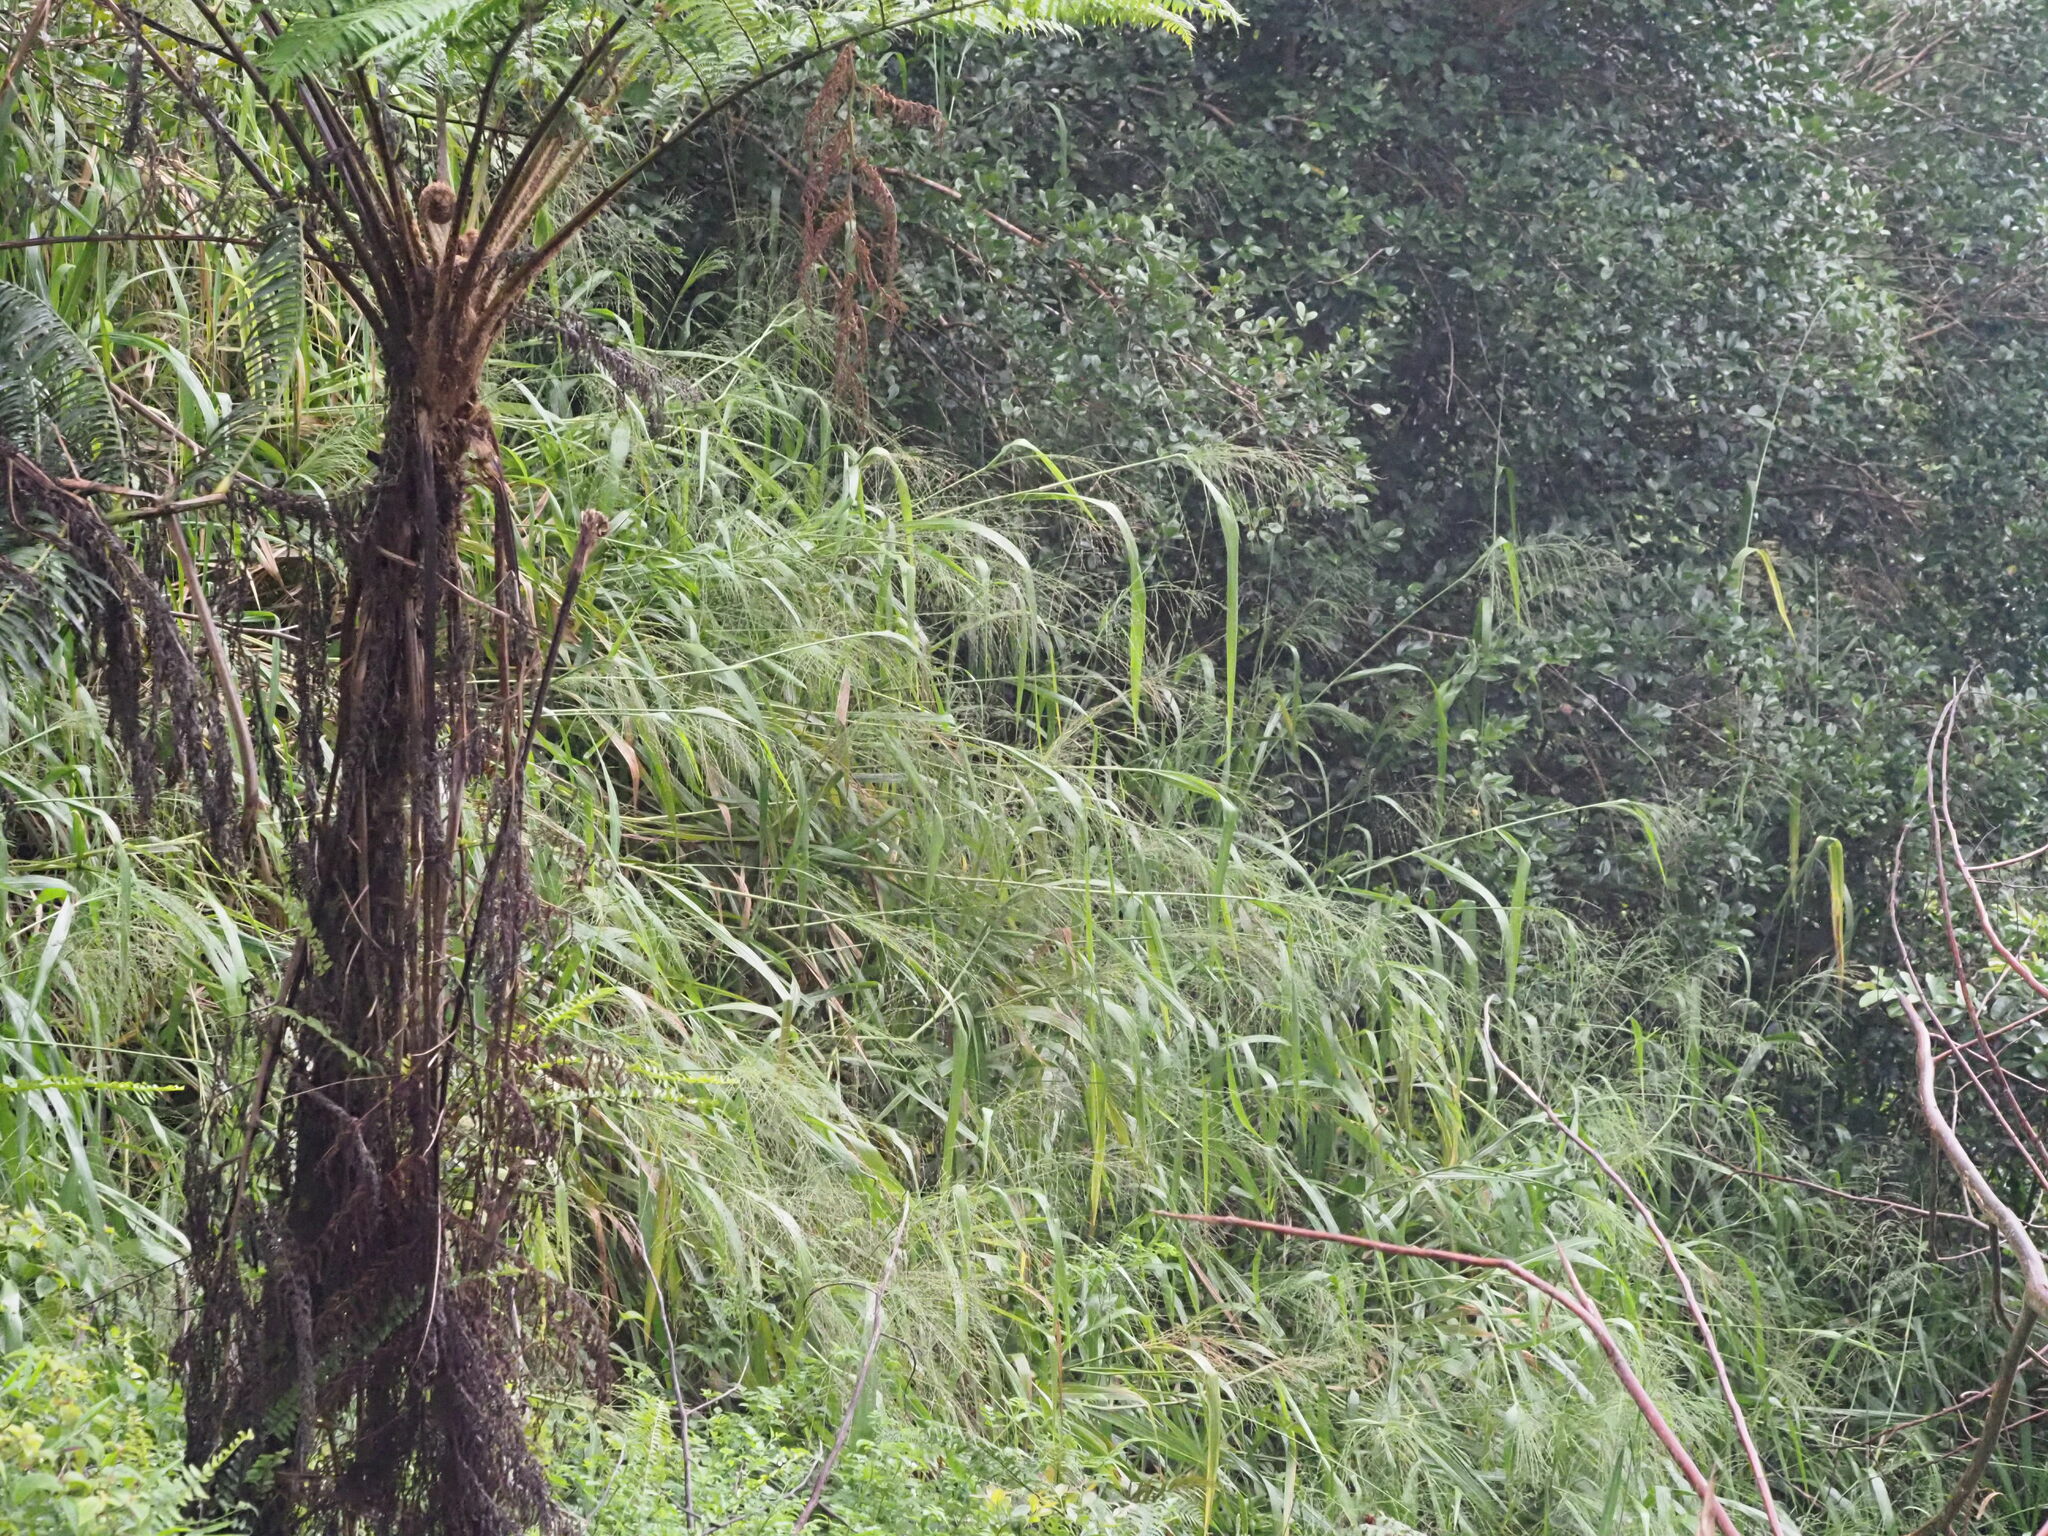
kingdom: Plantae
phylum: Tracheophyta
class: Liliopsida
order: Poales
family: Poaceae
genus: Megathyrsus
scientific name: Megathyrsus maximus
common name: Guineagrass
